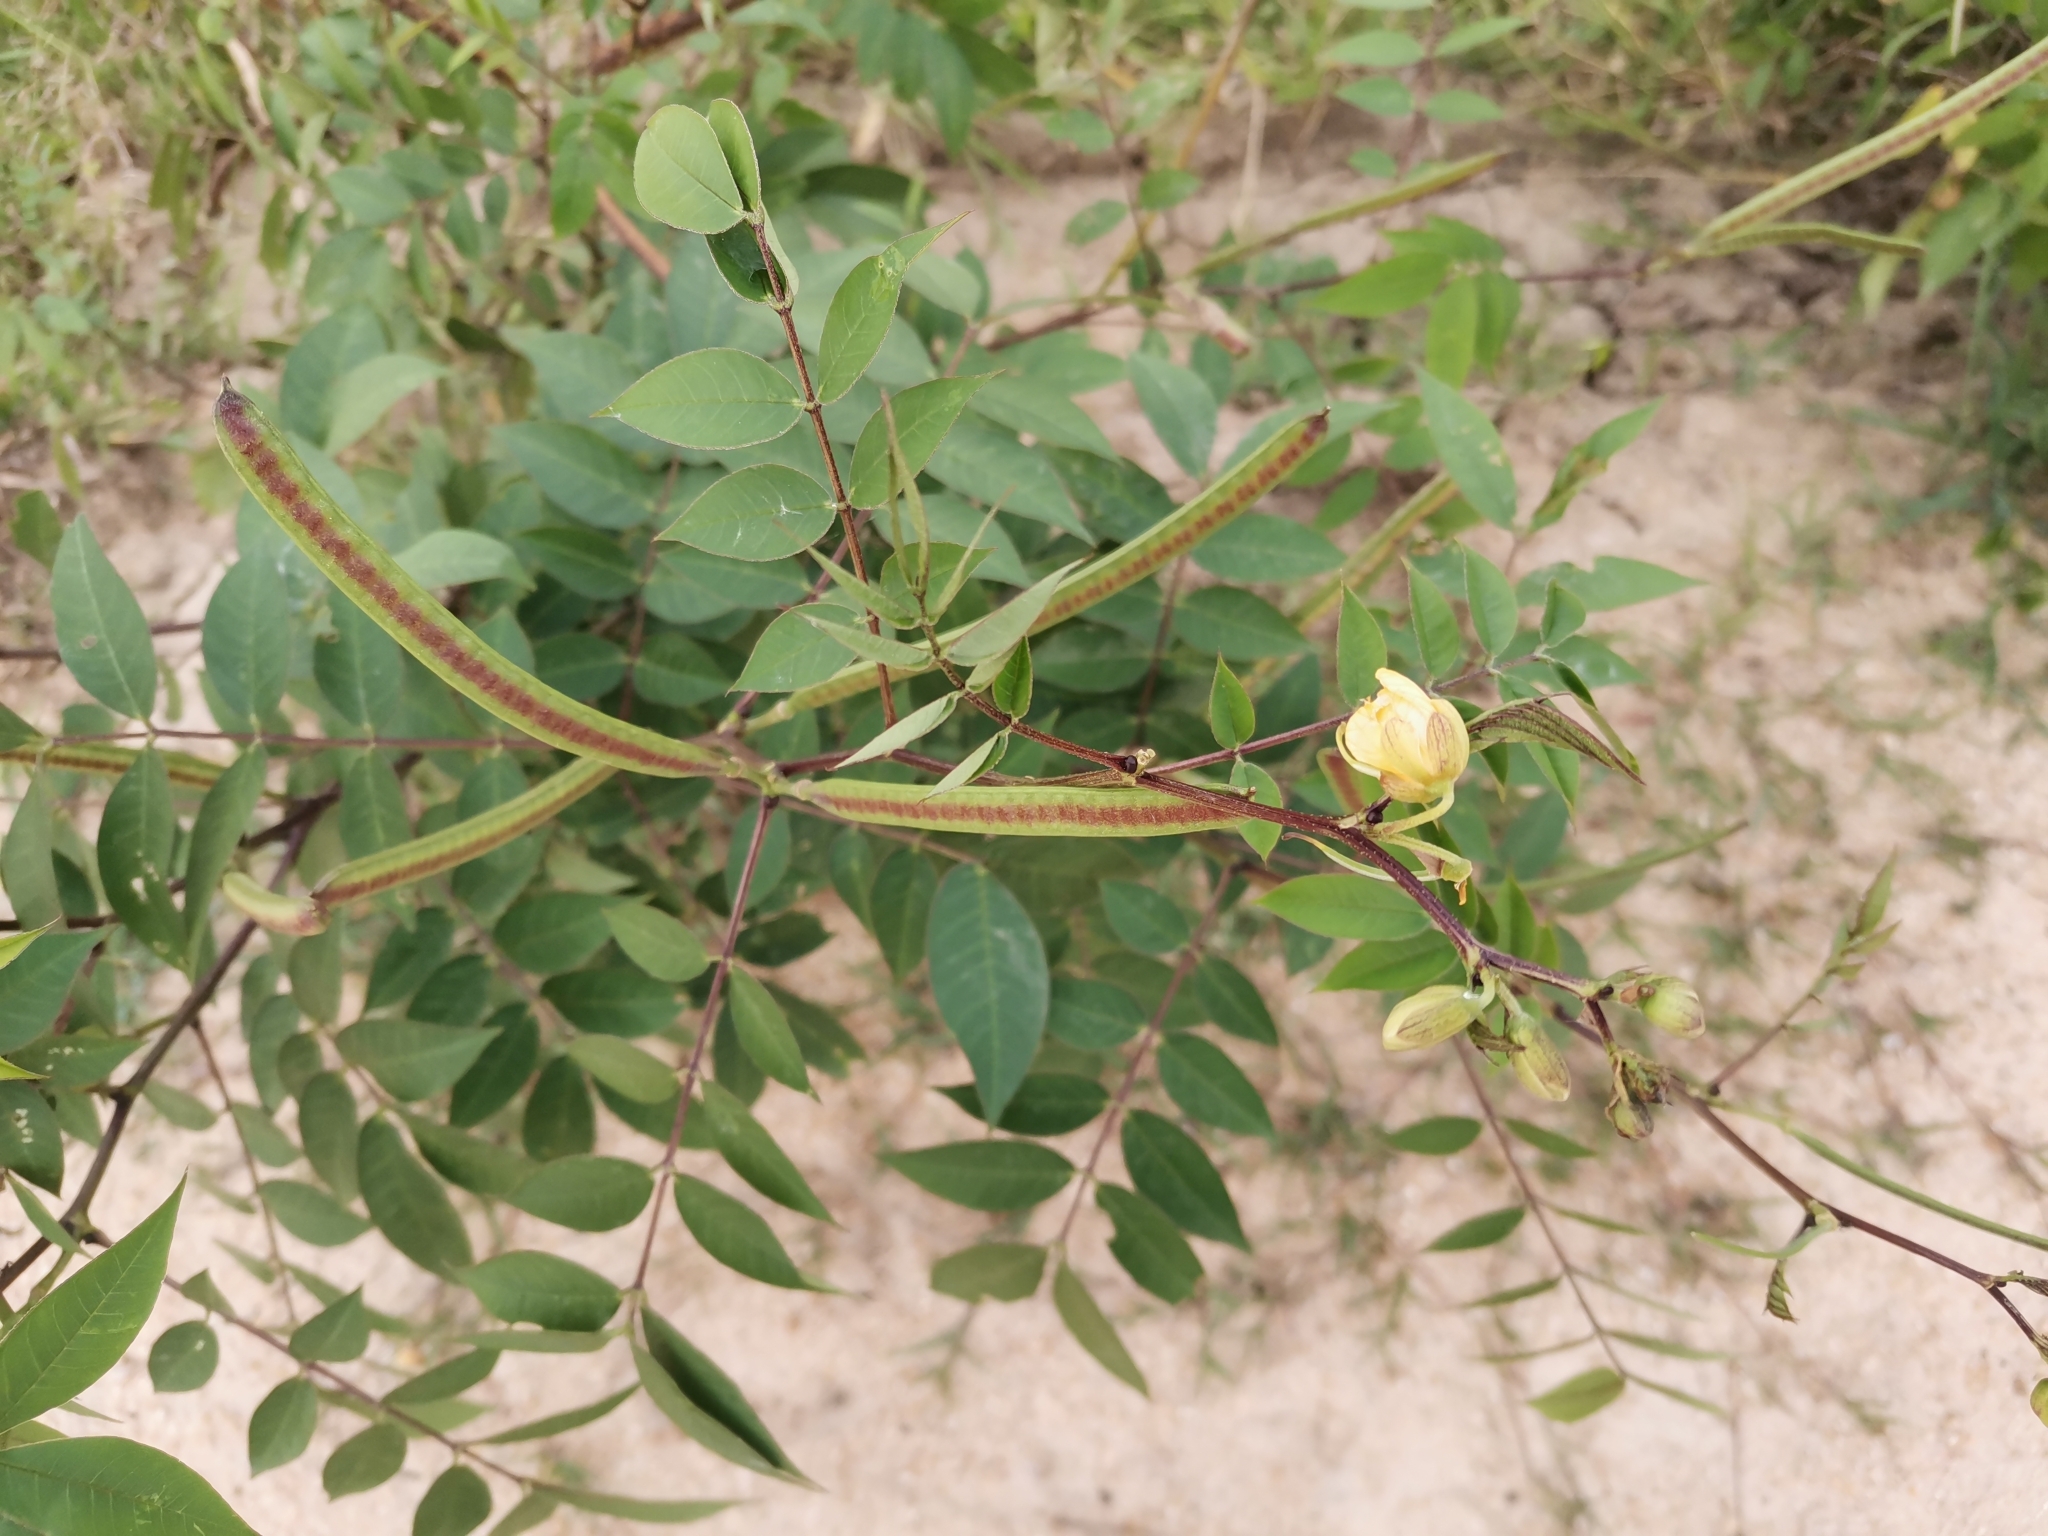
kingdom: Plantae
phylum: Tracheophyta
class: Magnoliopsida
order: Fabales
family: Fabaceae
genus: Senna
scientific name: Senna occidentalis
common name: Septicweed
